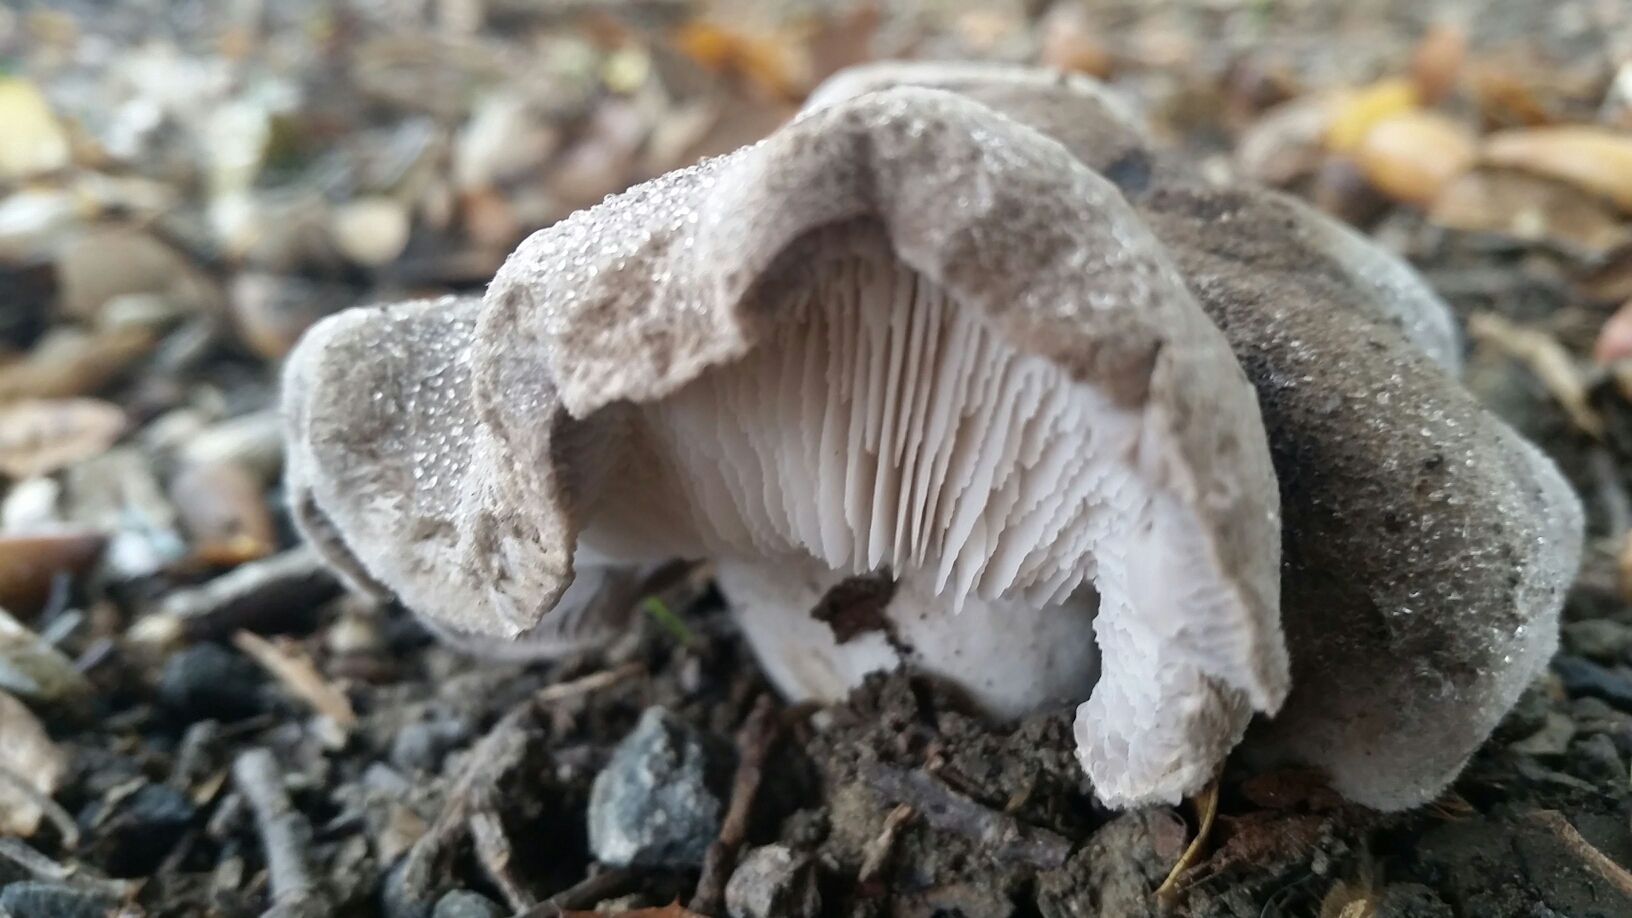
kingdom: Fungi
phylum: Basidiomycota
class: Agaricomycetes
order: Agaricales
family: Tricholomataceae
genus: Tricholoma
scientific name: Tricholoma terreum
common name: Grey knight
